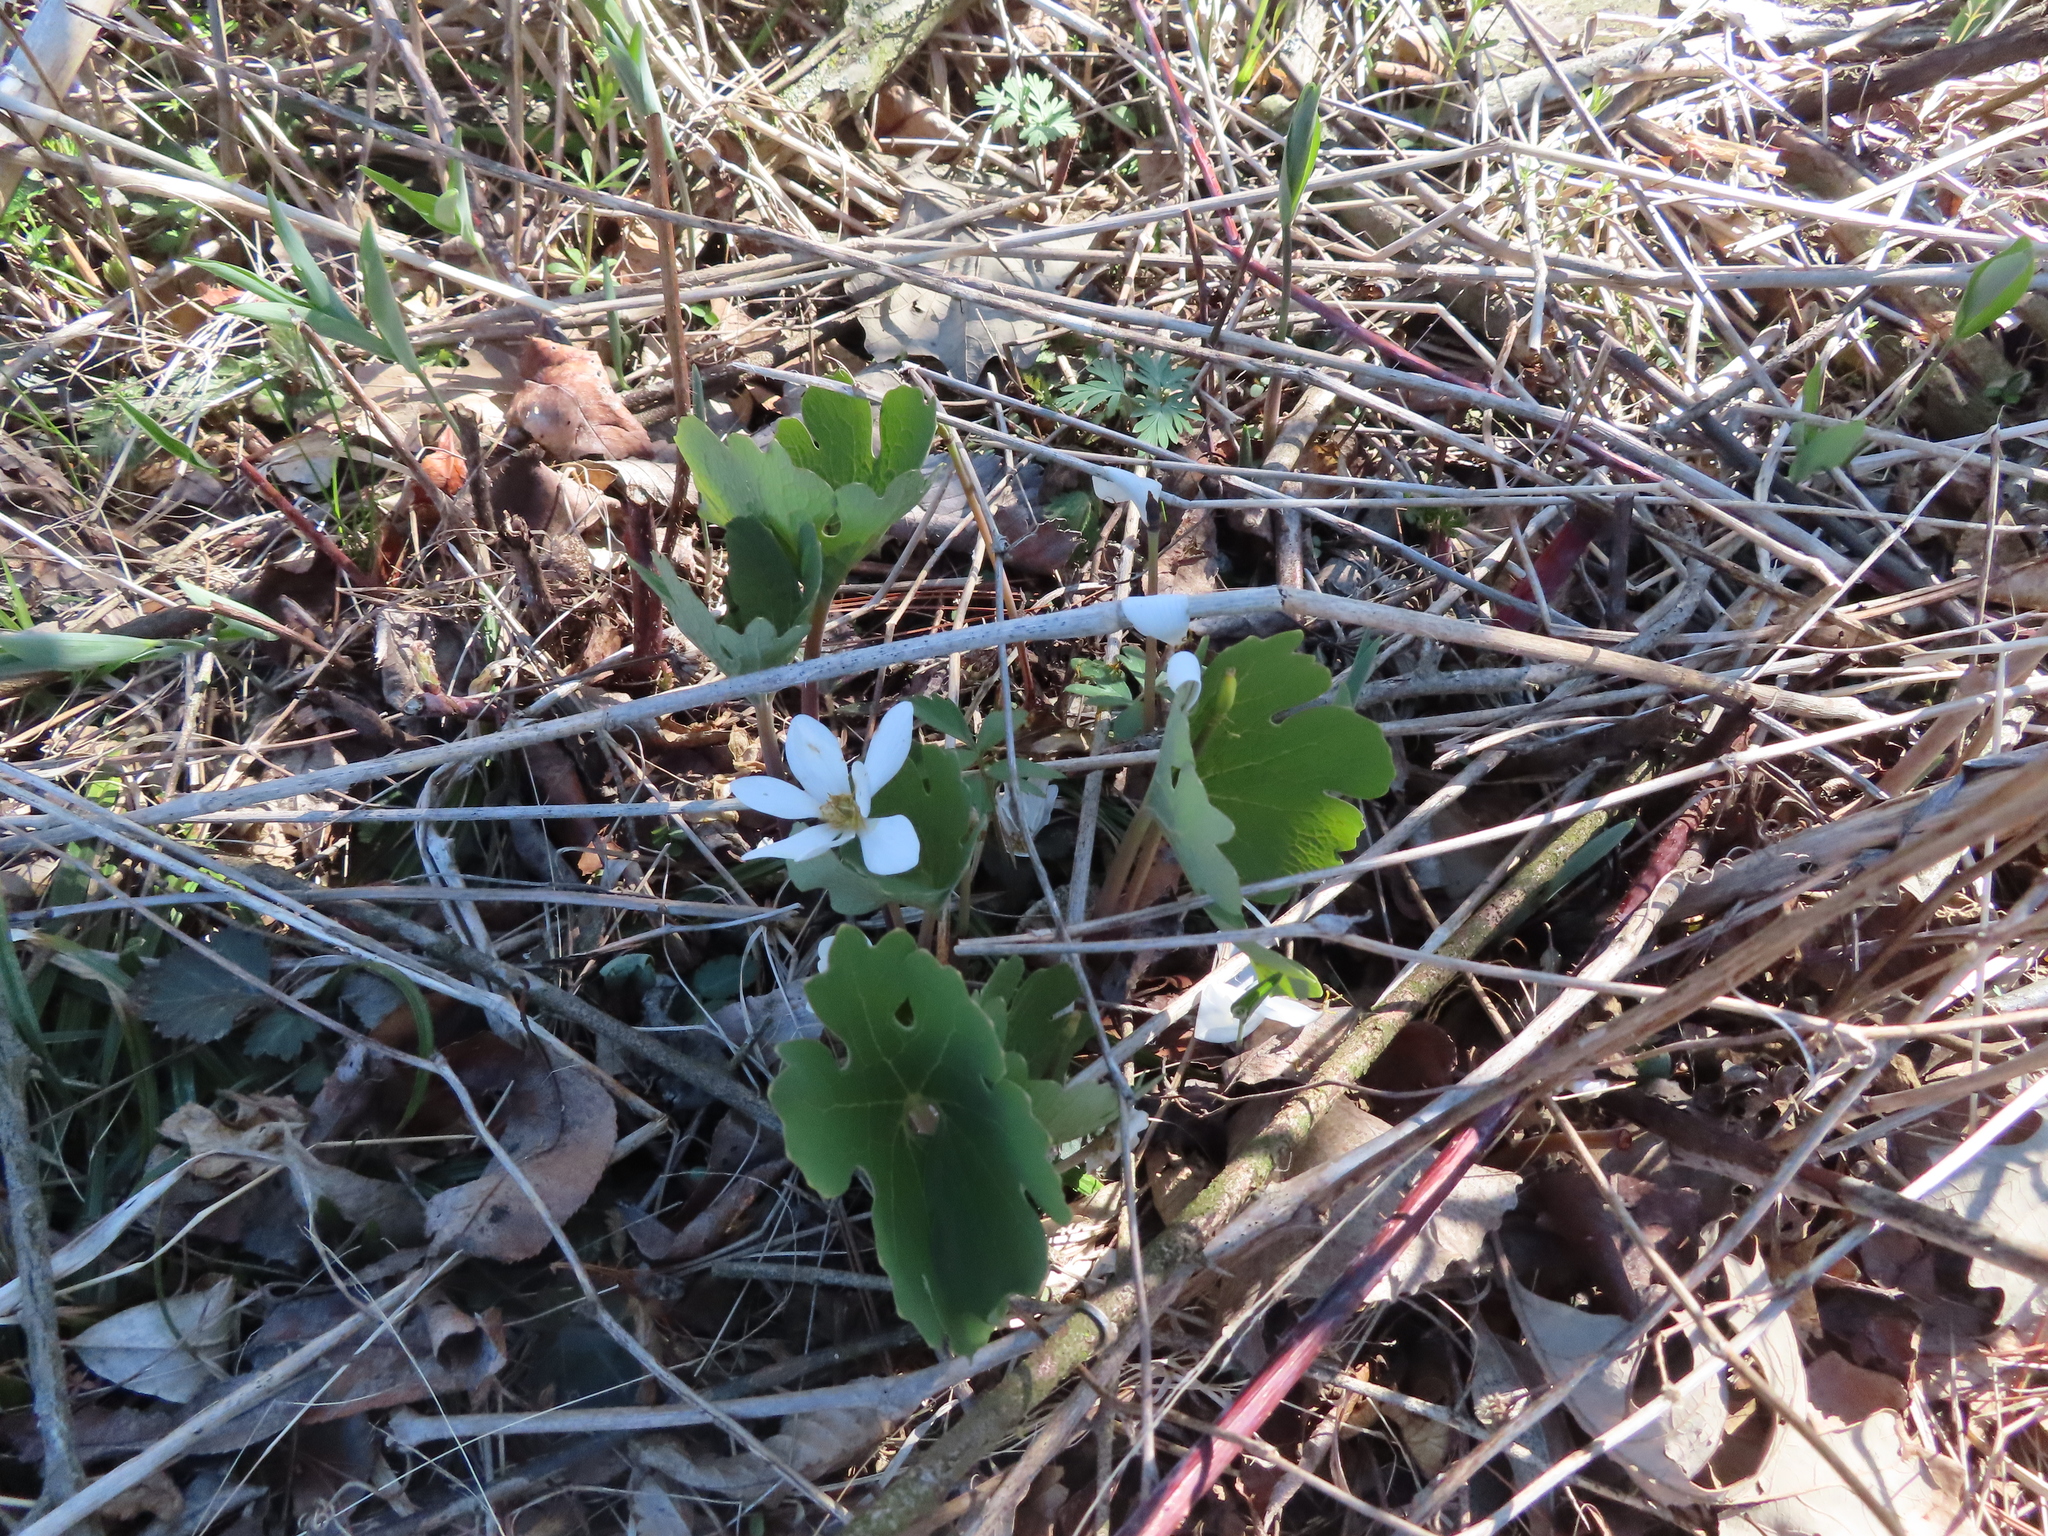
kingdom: Plantae
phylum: Tracheophyta
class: Magnoliopsida
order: Ranunculales
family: Papaveraceae
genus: Sanguinaria
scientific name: Sanguinaria canadensis
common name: Bloodroot
